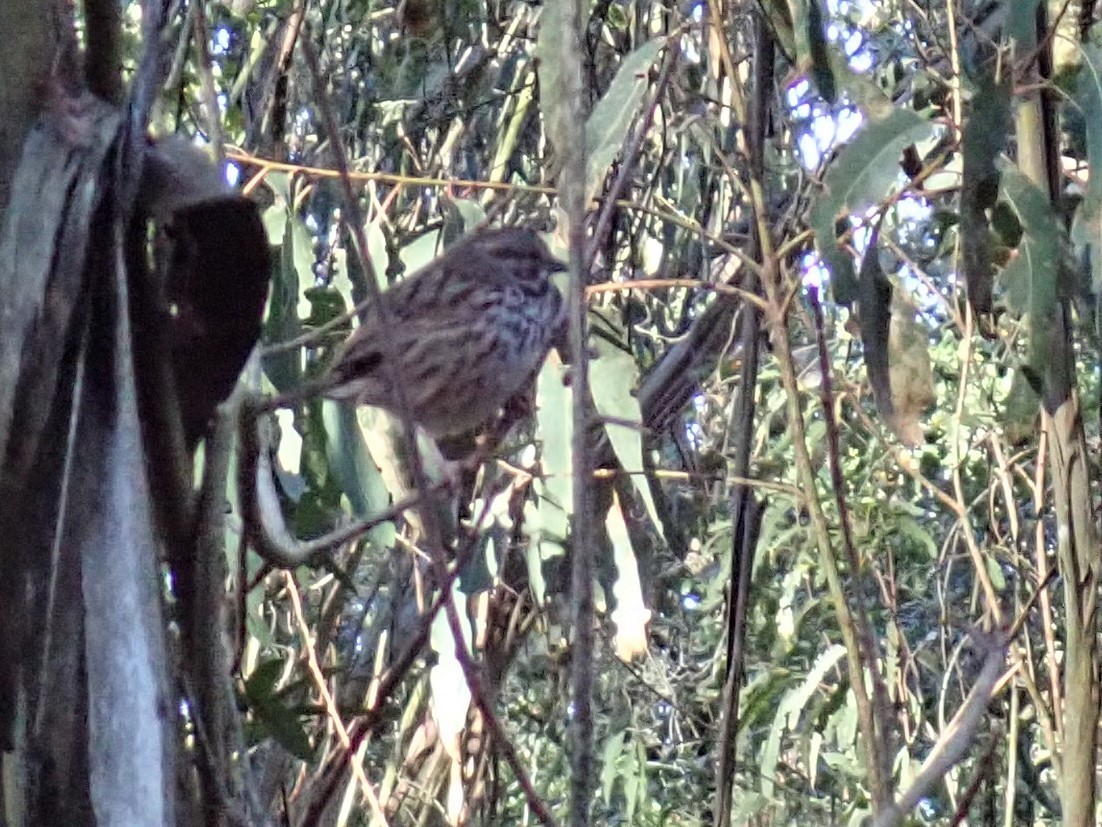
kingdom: Animalia
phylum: Chordata
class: Aves
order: Passeriformes
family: Passerellidae
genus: Melospiza
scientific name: Melospiza melodia
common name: Song sparrow
